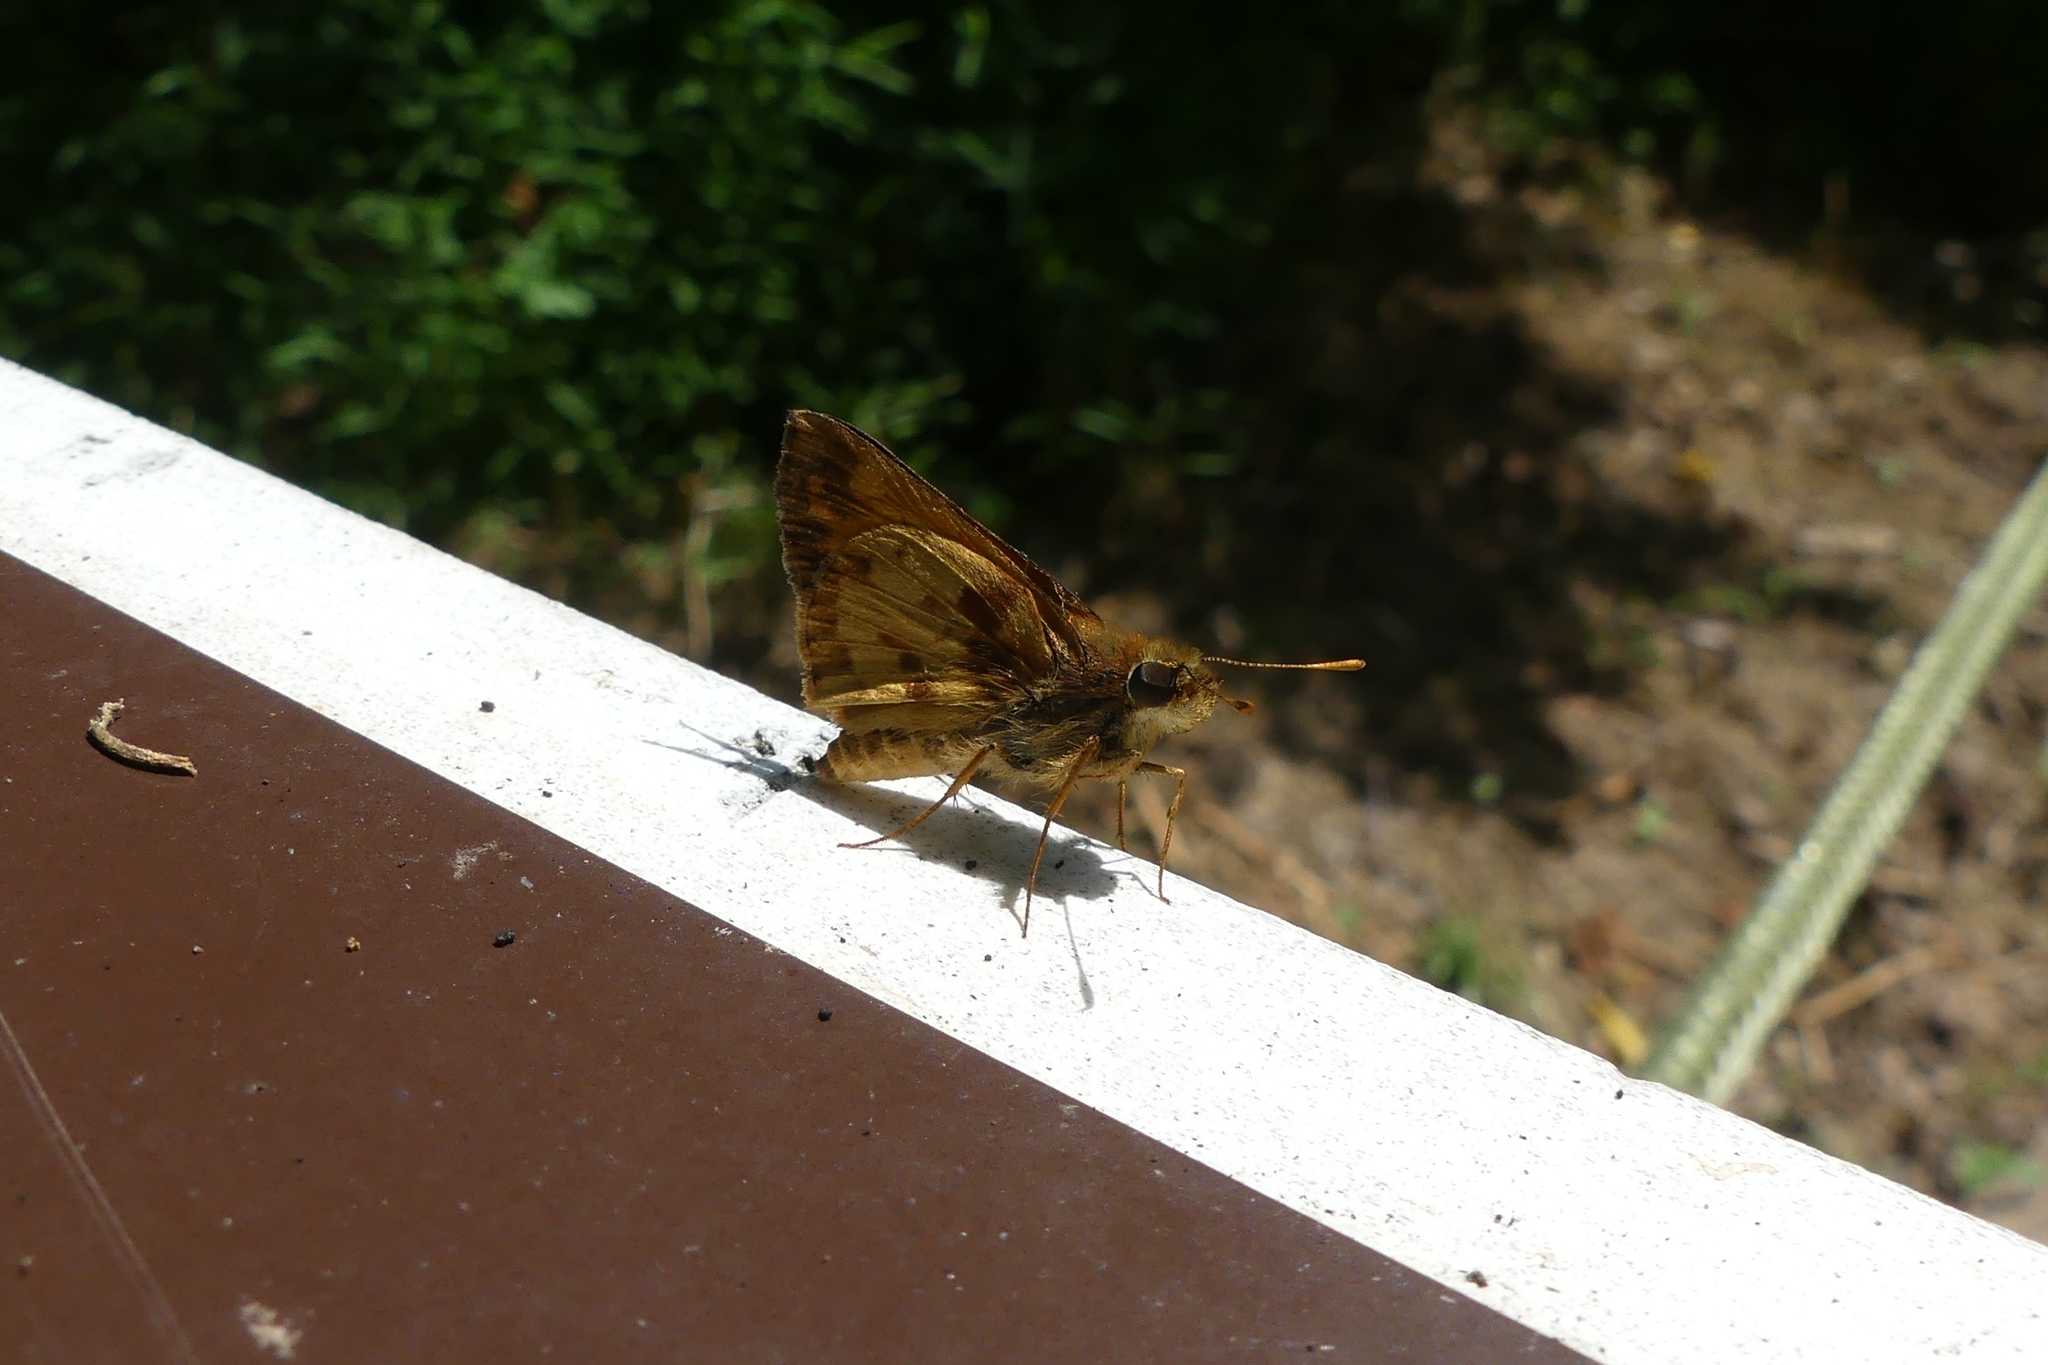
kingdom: Animalia
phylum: Arthropoda
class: Insecta
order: Lepidoptera
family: Hesperiidae
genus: Lon
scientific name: Lon zabulon
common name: Zabulon skipper
